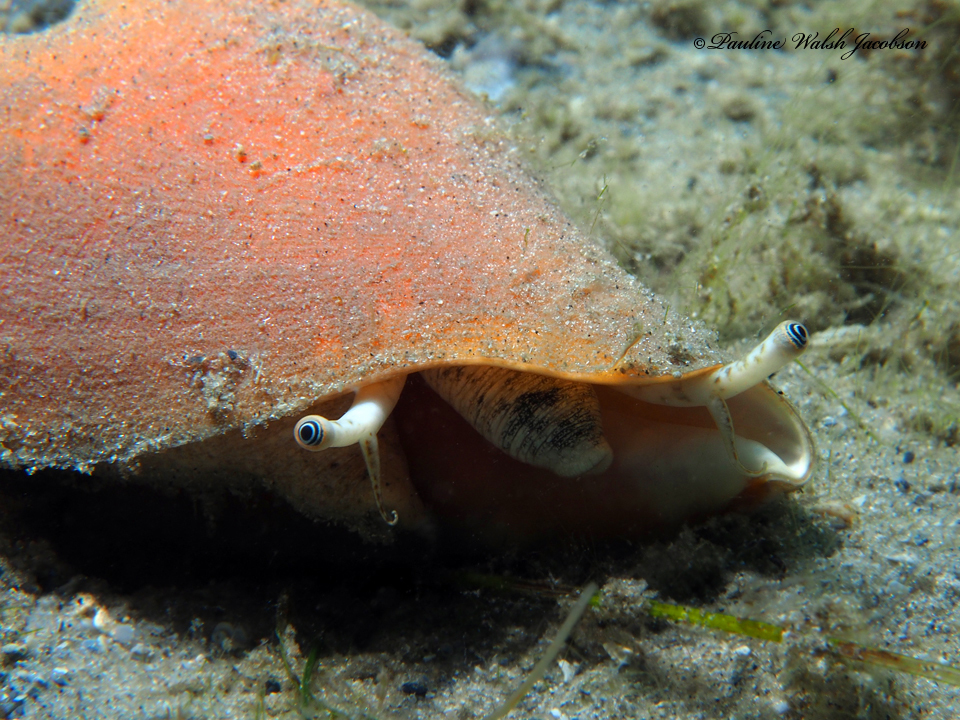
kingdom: Animalia
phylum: Mollusca
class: Gastropoda
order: Littorinimorpha
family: Strombidae
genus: Strombus
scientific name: Strombus alatus
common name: Florida fighting conch
